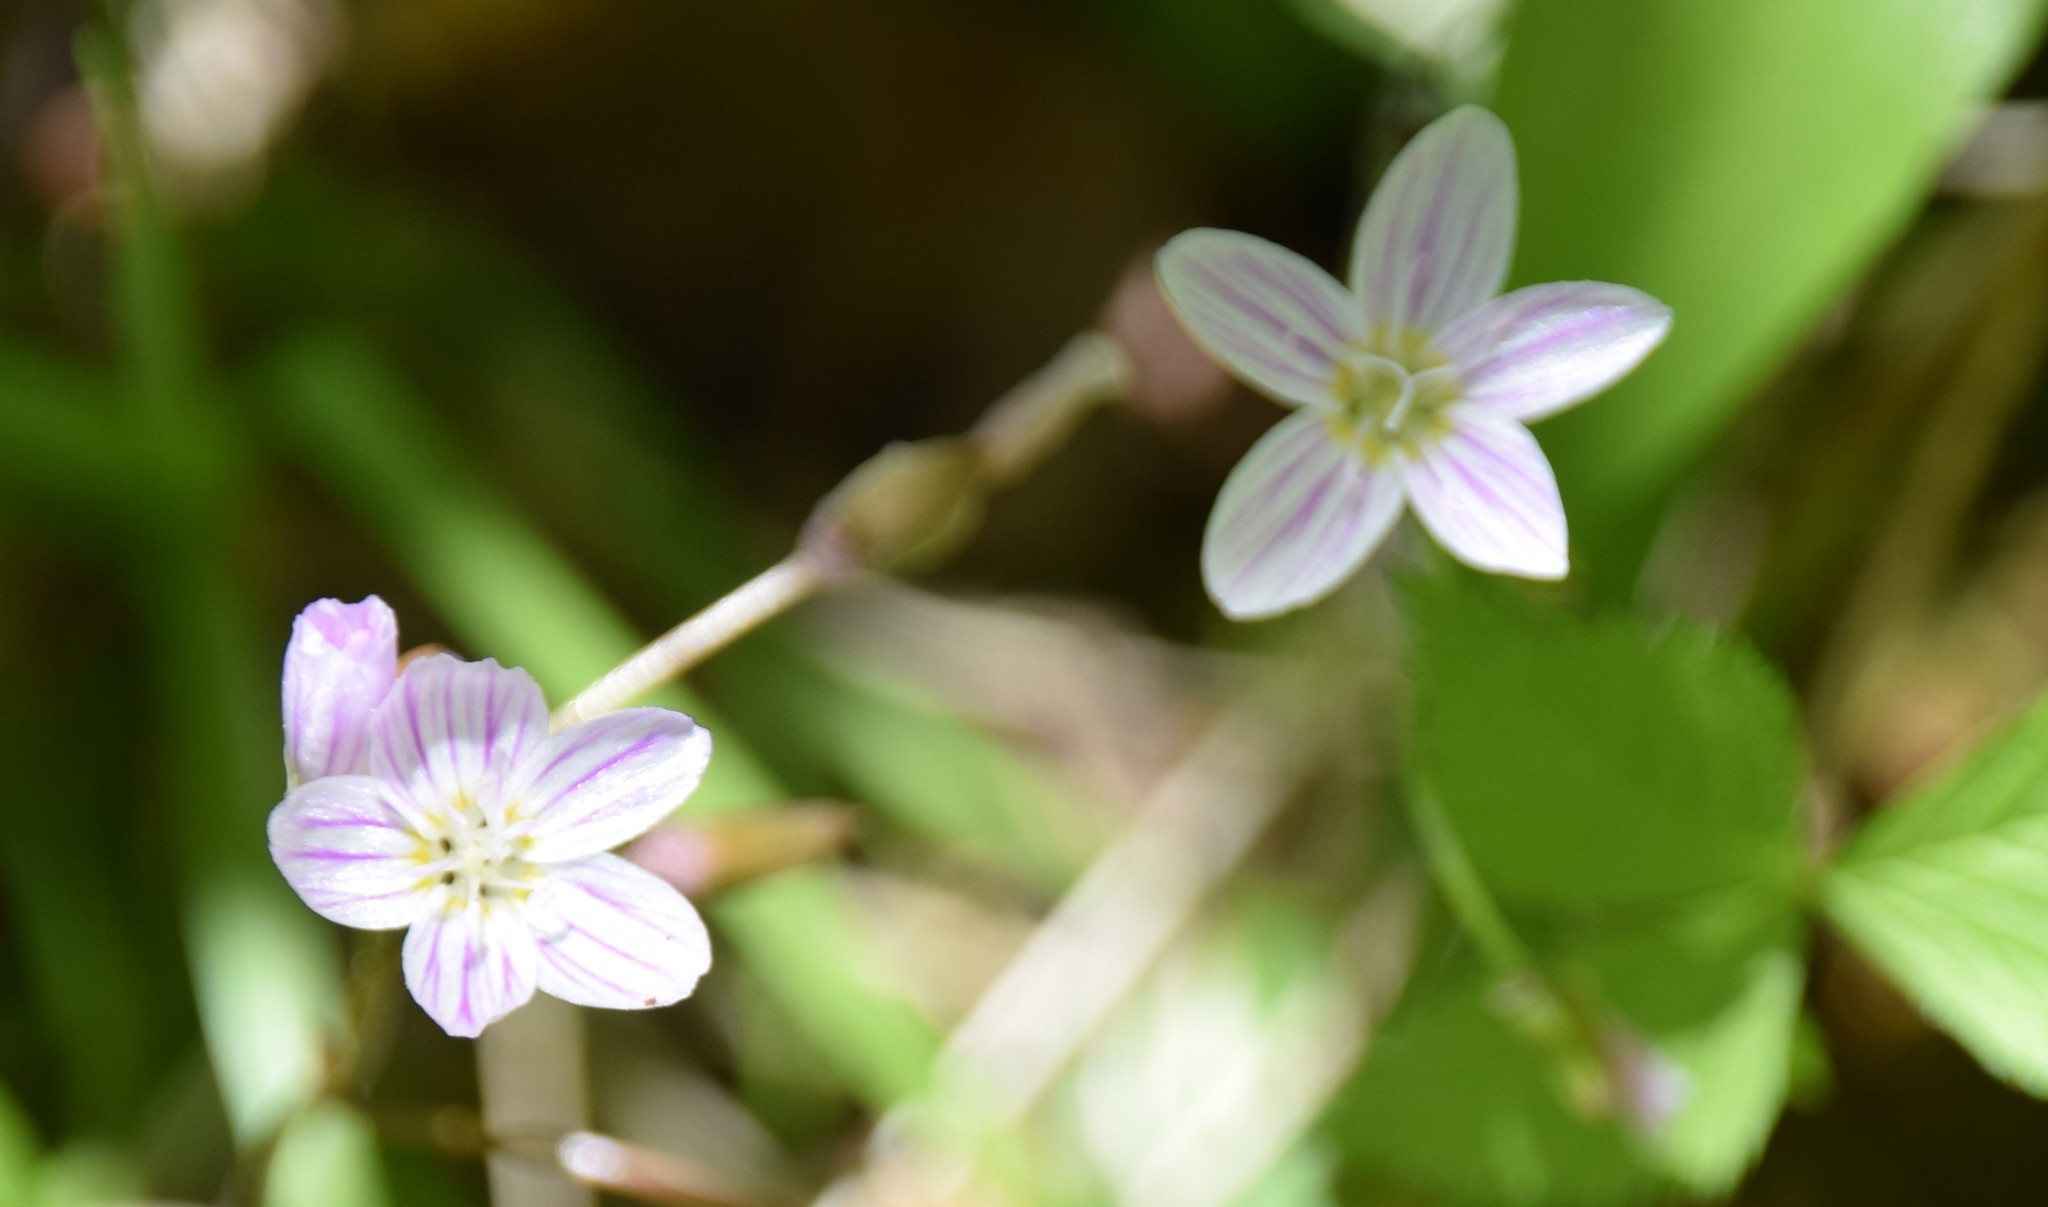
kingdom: Plantae
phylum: Tracheophyta
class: Magnoliopsida
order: Caryophyllales
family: Montiaceae
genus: Claytonia
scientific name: Claytonia caroliniana
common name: Carolina spring beauty
